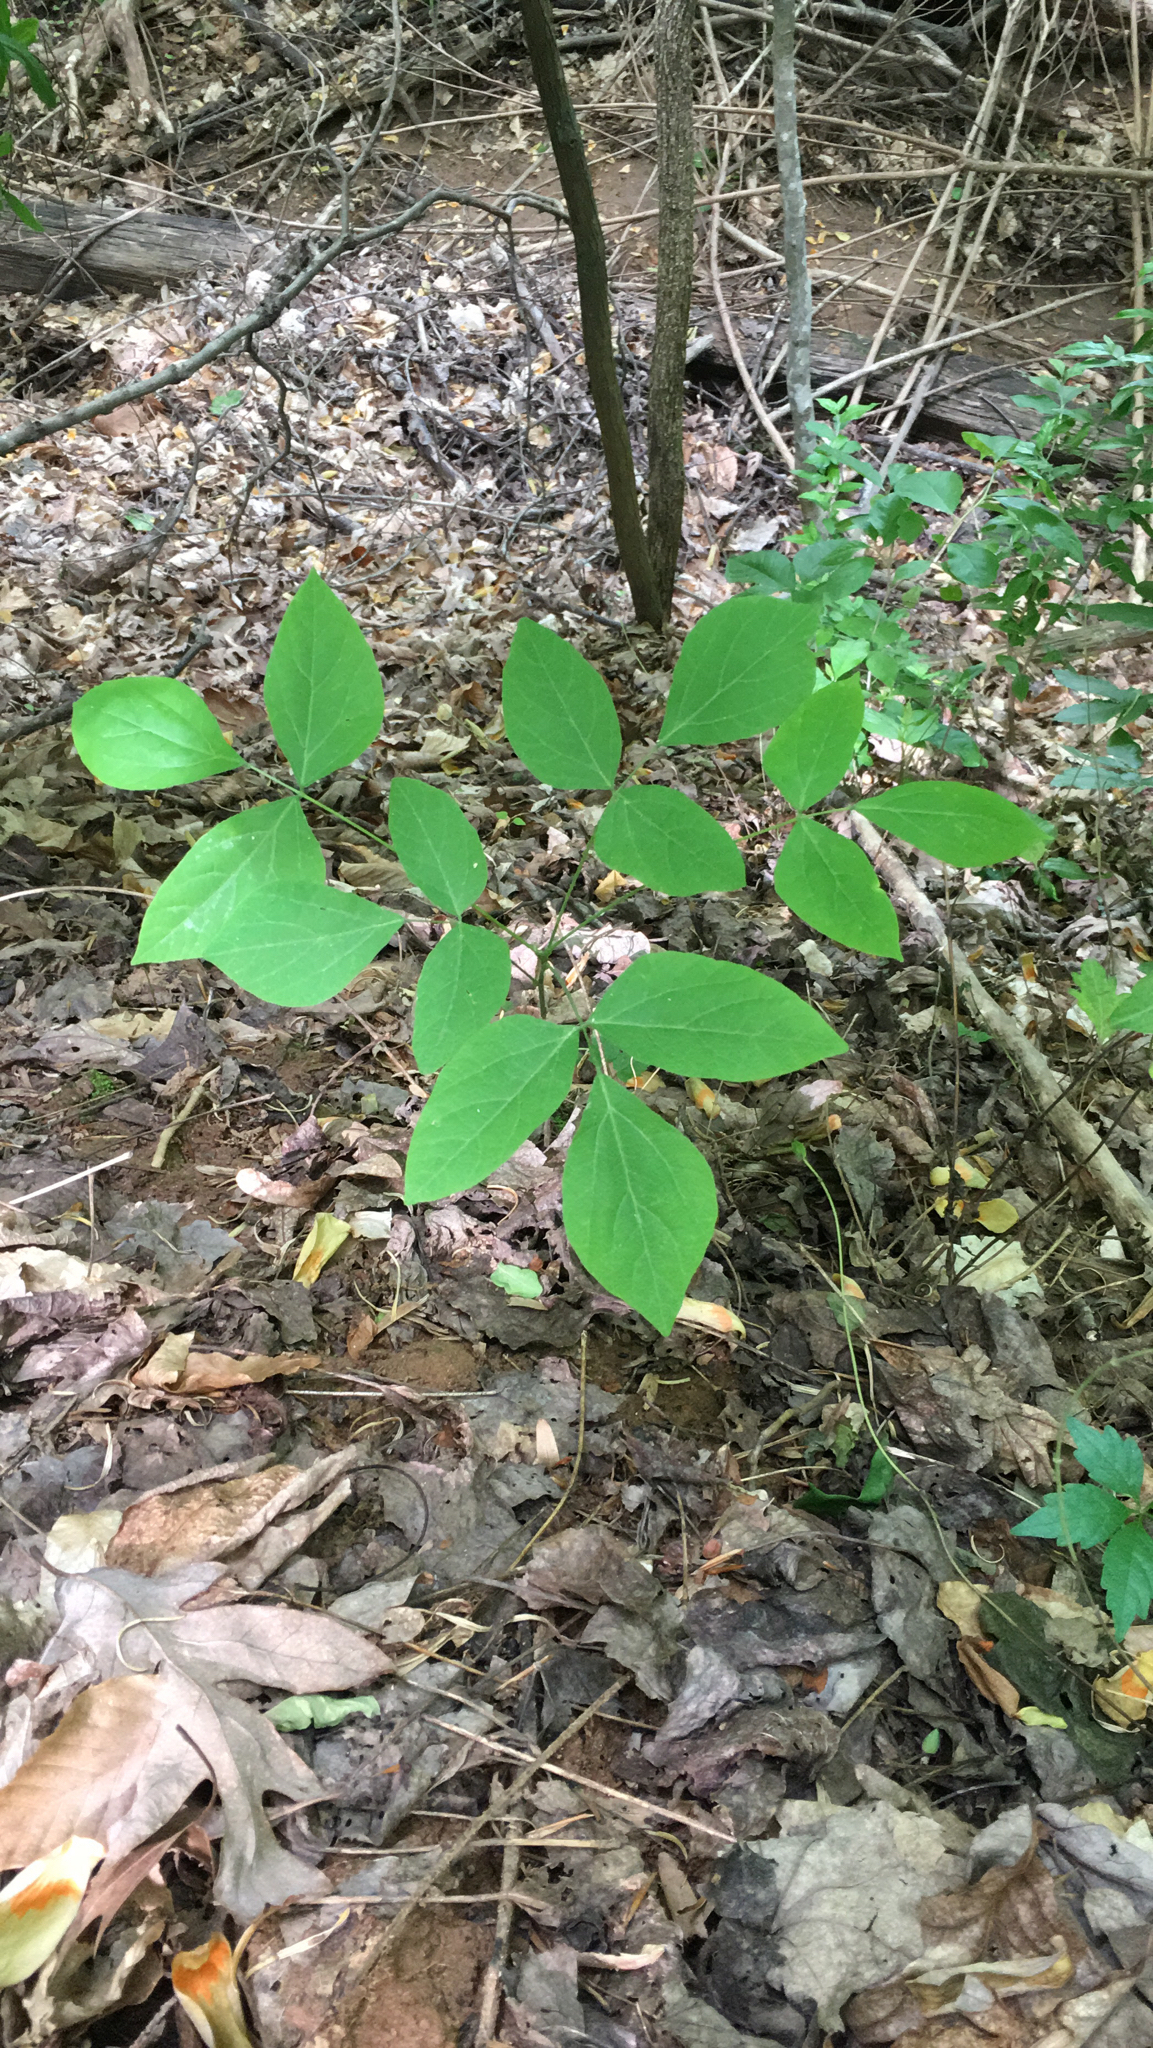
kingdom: Plantae
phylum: Tracheophyta
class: Magnoliopsida
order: Fabales
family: Fabaceae
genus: Hylodesmum
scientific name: Hylodesmum nudiflorum
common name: Bare-stemmed tick-trefoil
